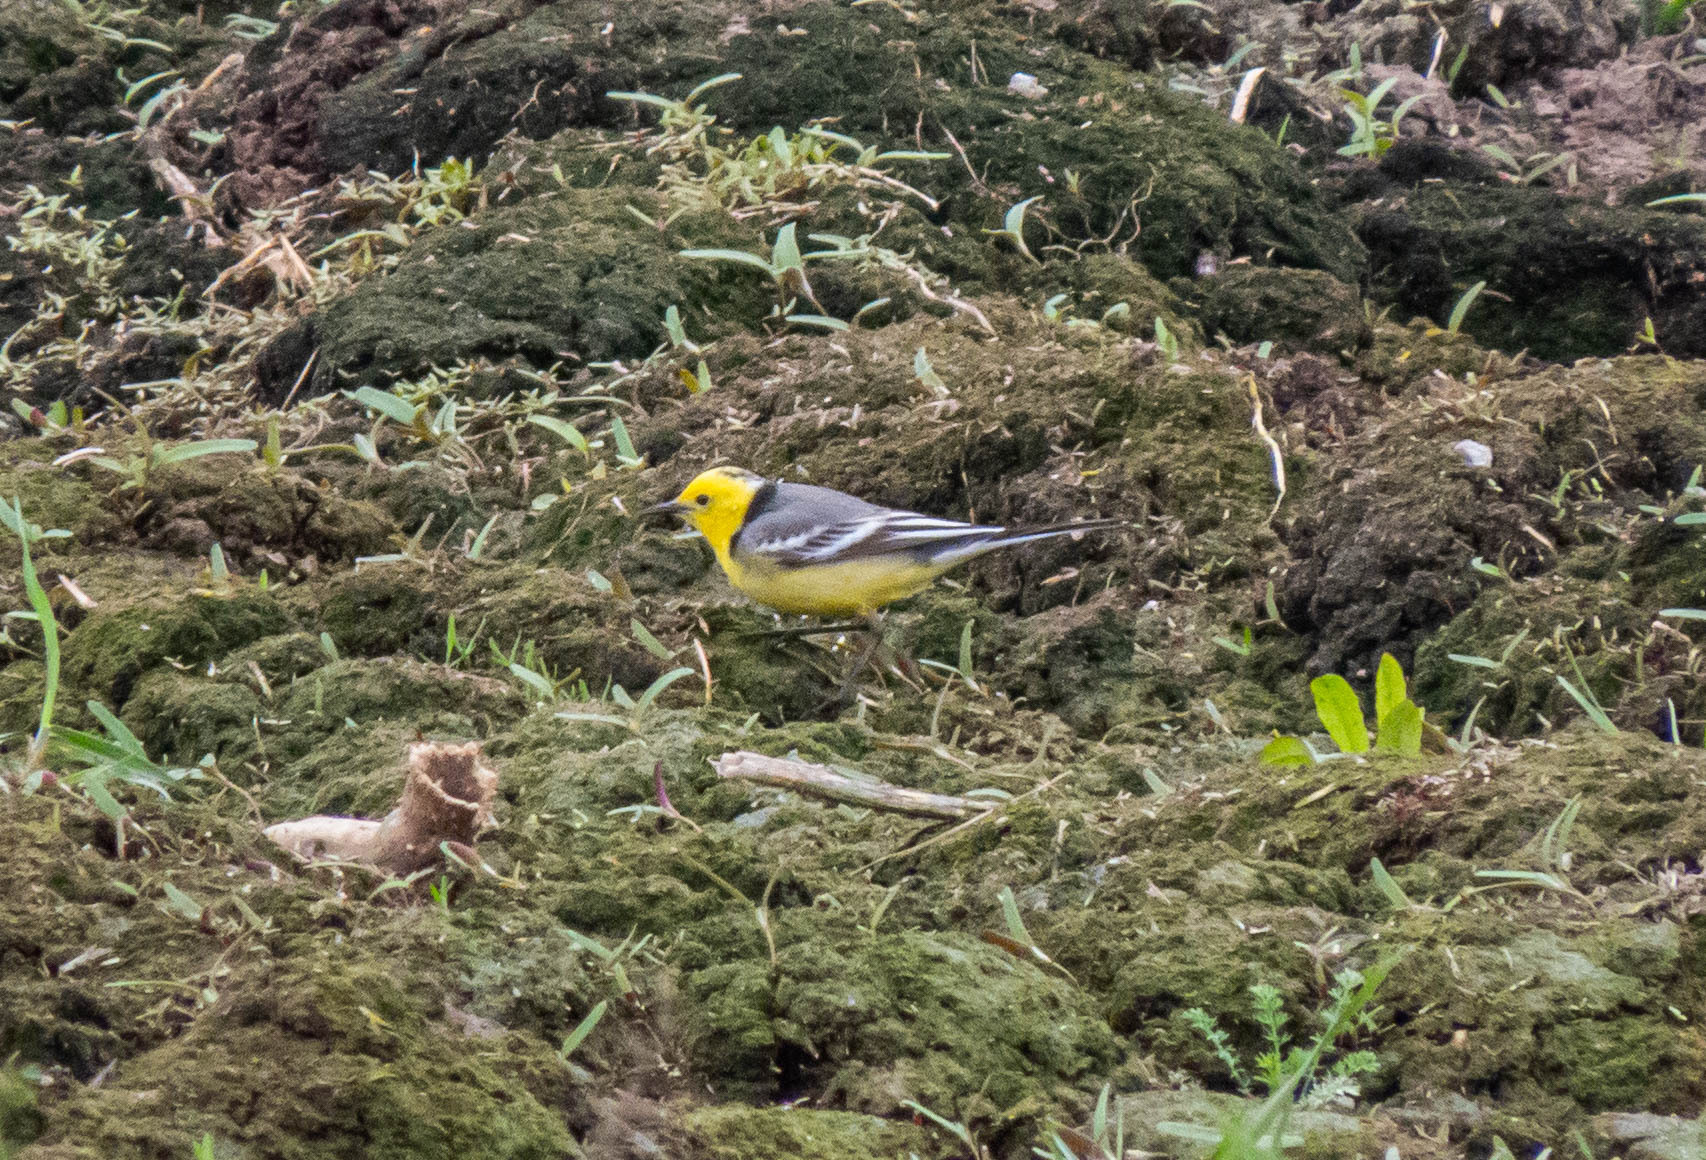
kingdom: Animalia
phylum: Chordata
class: Aves
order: Passeriformes
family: Motacillidae
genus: Motacilla
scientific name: Motacilla citreola
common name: Citrine wagtail
